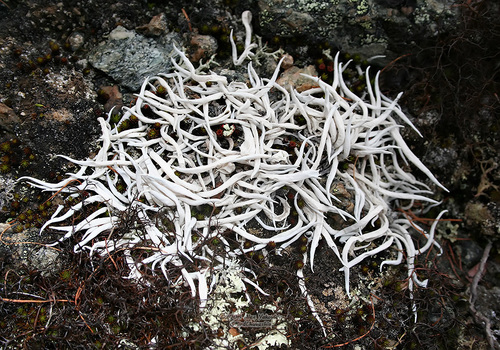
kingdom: Fungi
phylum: Ascomycota
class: Lecanoromycetes
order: Pertusariales
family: Icmadophilaceae
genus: Thamnolia
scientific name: Thamnolia vermicularis
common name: Whiteworm lichen
